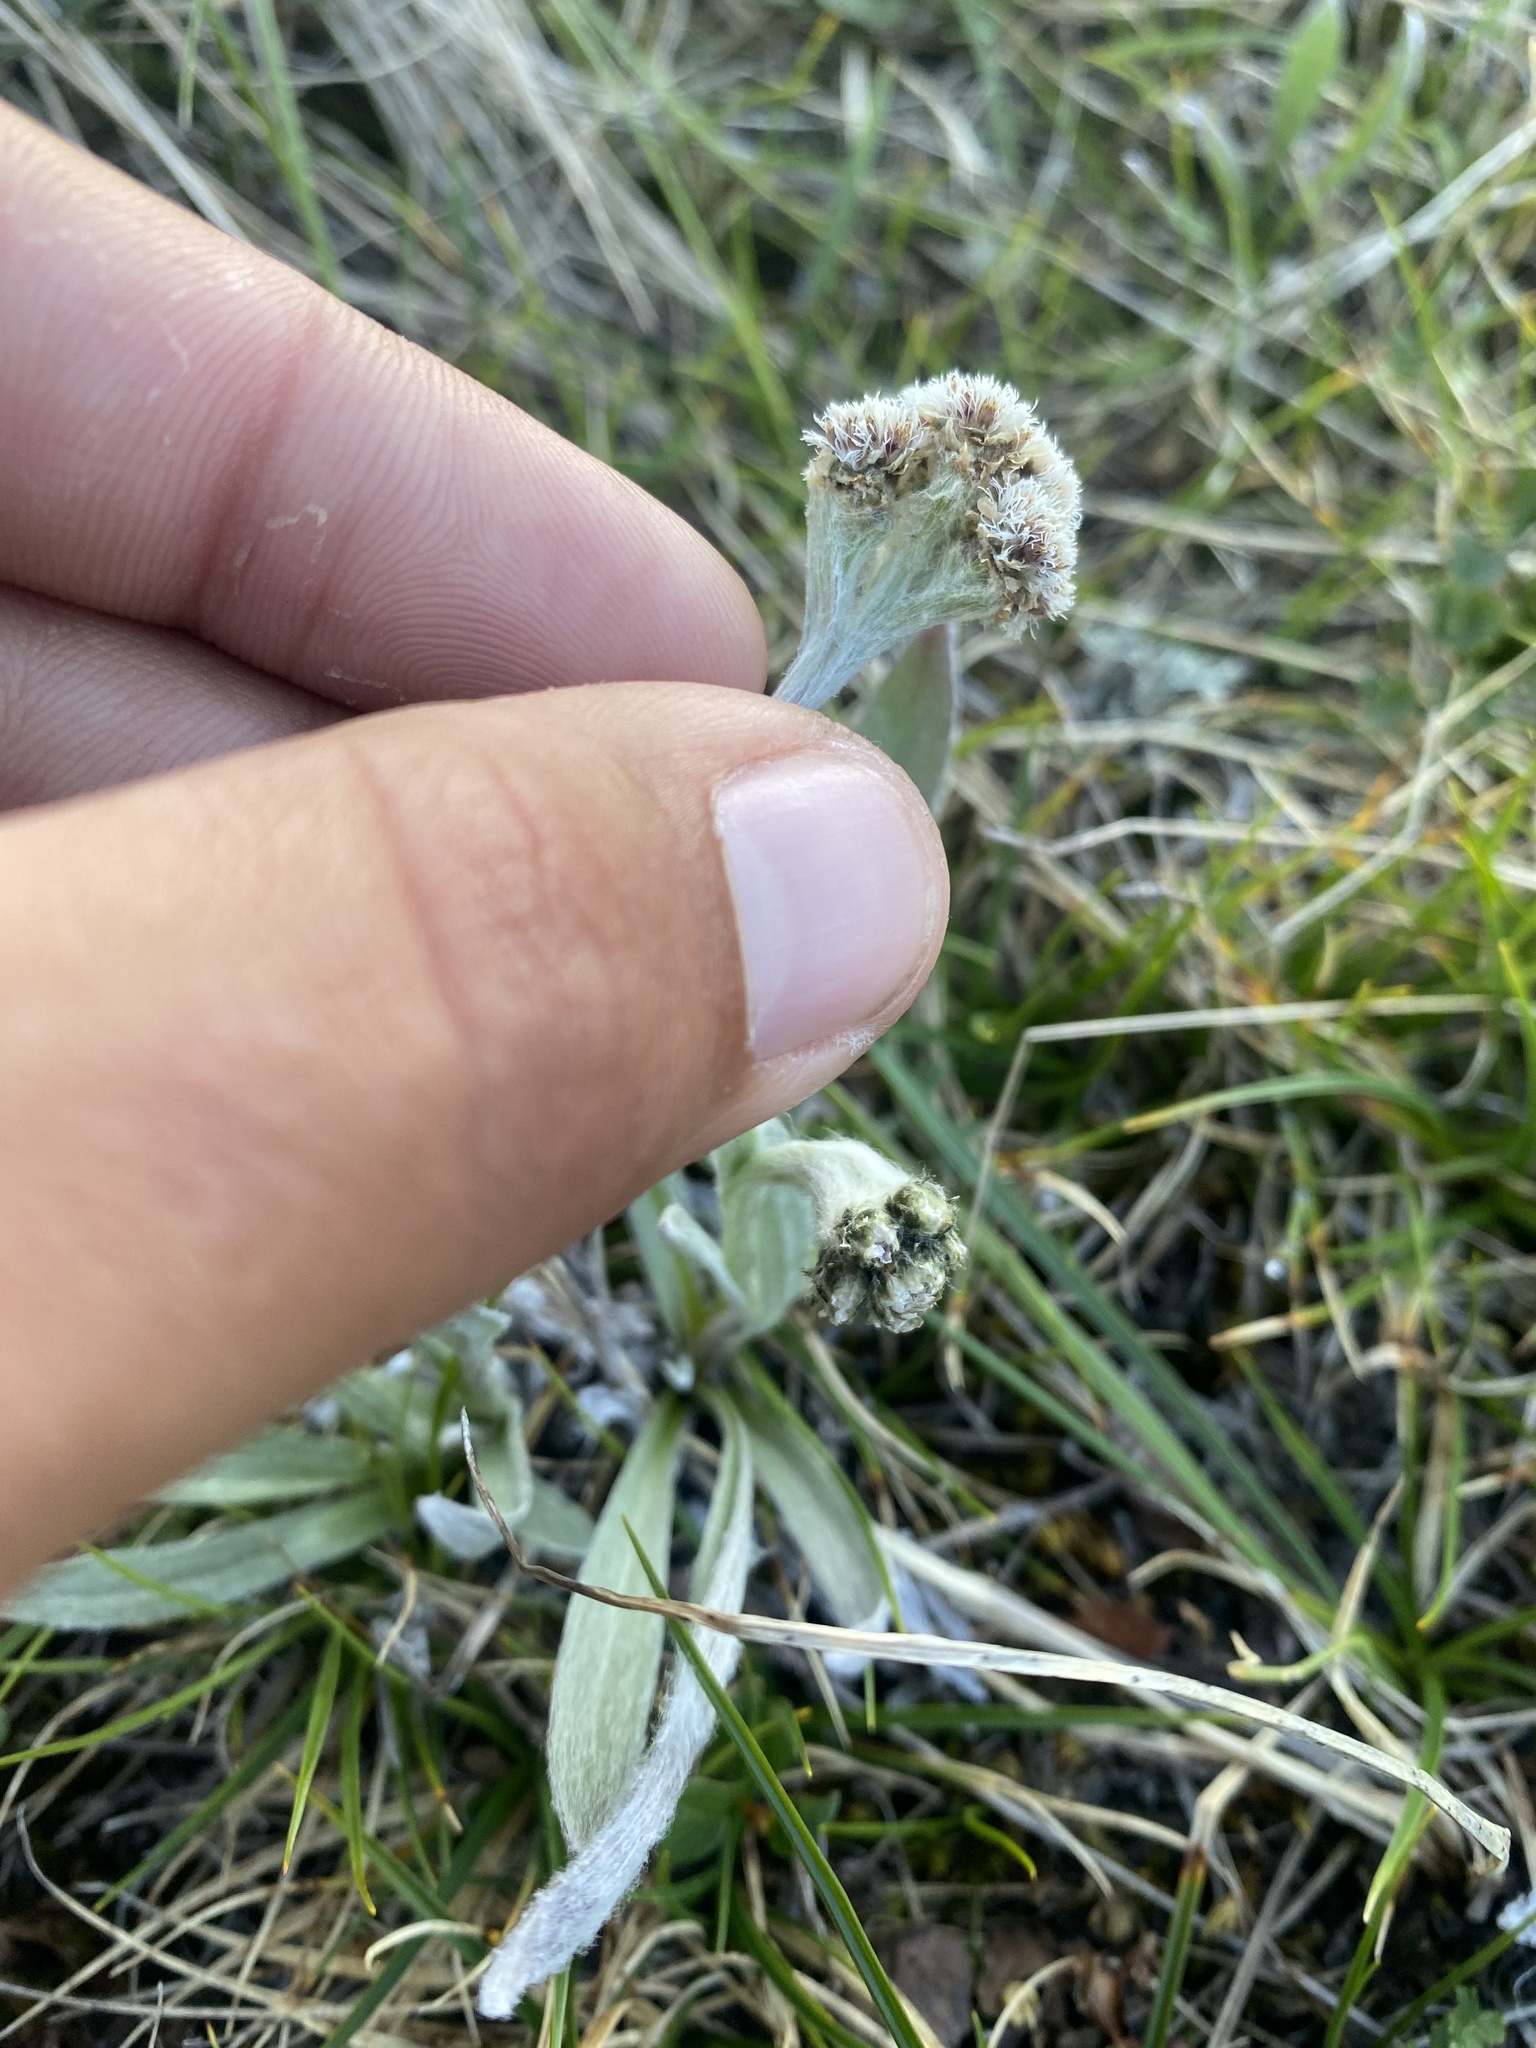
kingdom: Plantae
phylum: Tracheophyta
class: Magnoliopsida
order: Asterales
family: Asteraceae
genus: Antennaria
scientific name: Antennaria lanata
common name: Woolly pussytoes
